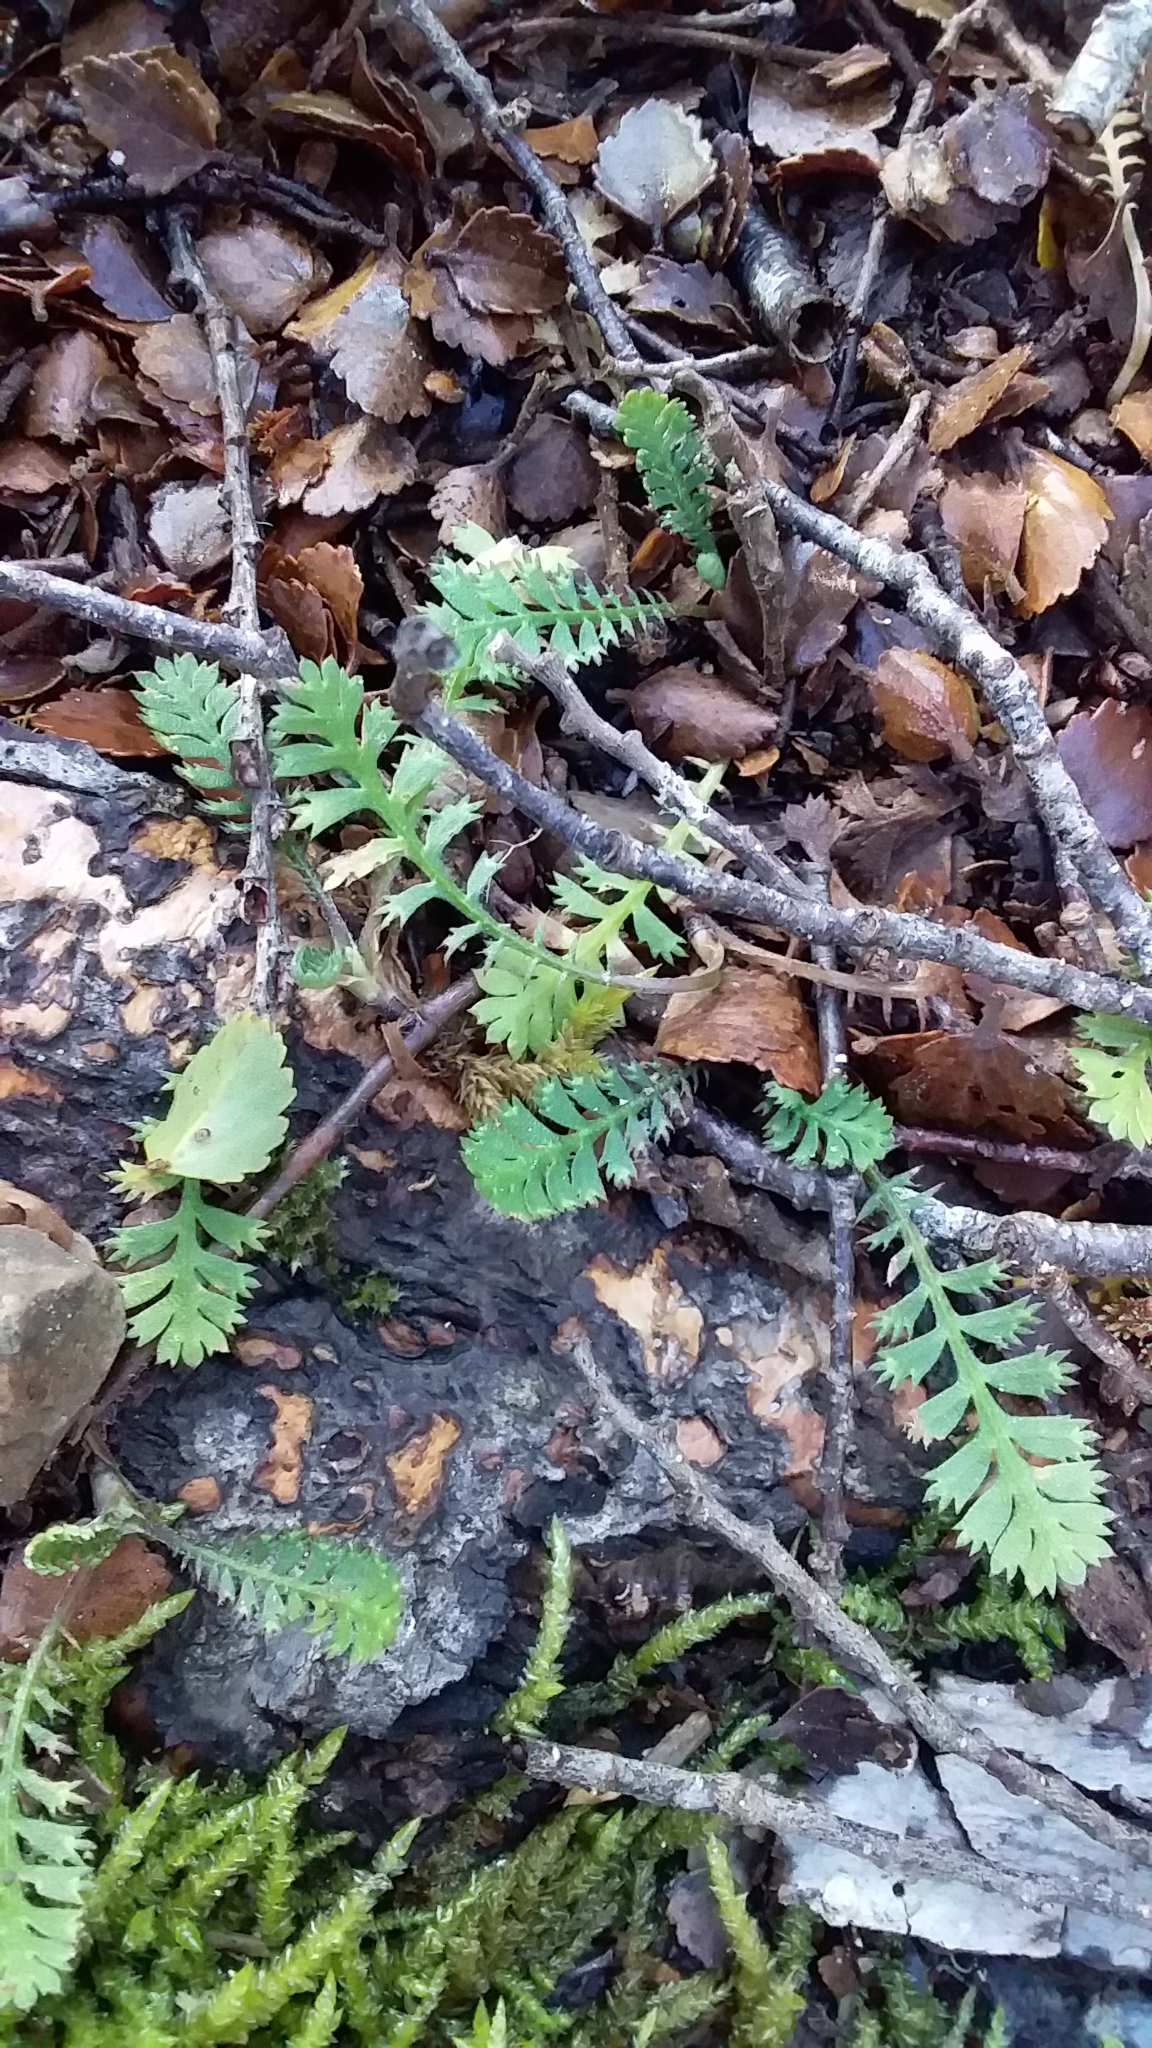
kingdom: Plantae
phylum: Tracheophyta
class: Magnoliopsida
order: Asterales
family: Asteraceae
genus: Leptinella
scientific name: Leptinella squalida
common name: New zealand brass-buttons
